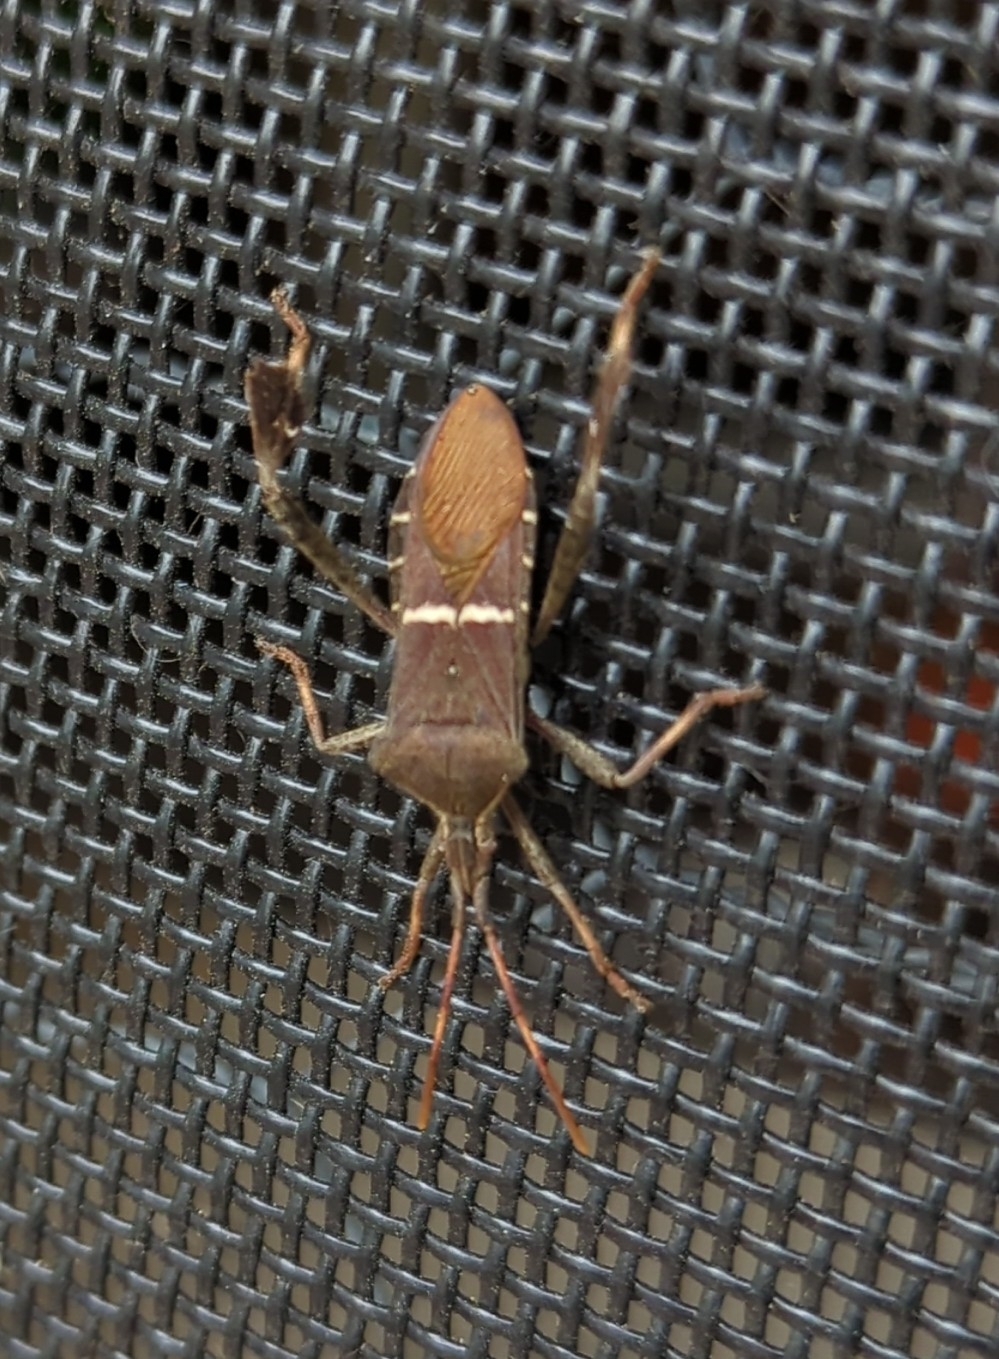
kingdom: Animalia
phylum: Arthropoda
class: Insecta
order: Hemiptera
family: Coreidae
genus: Leptoglossus
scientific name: Leptoglossus phyllopus
